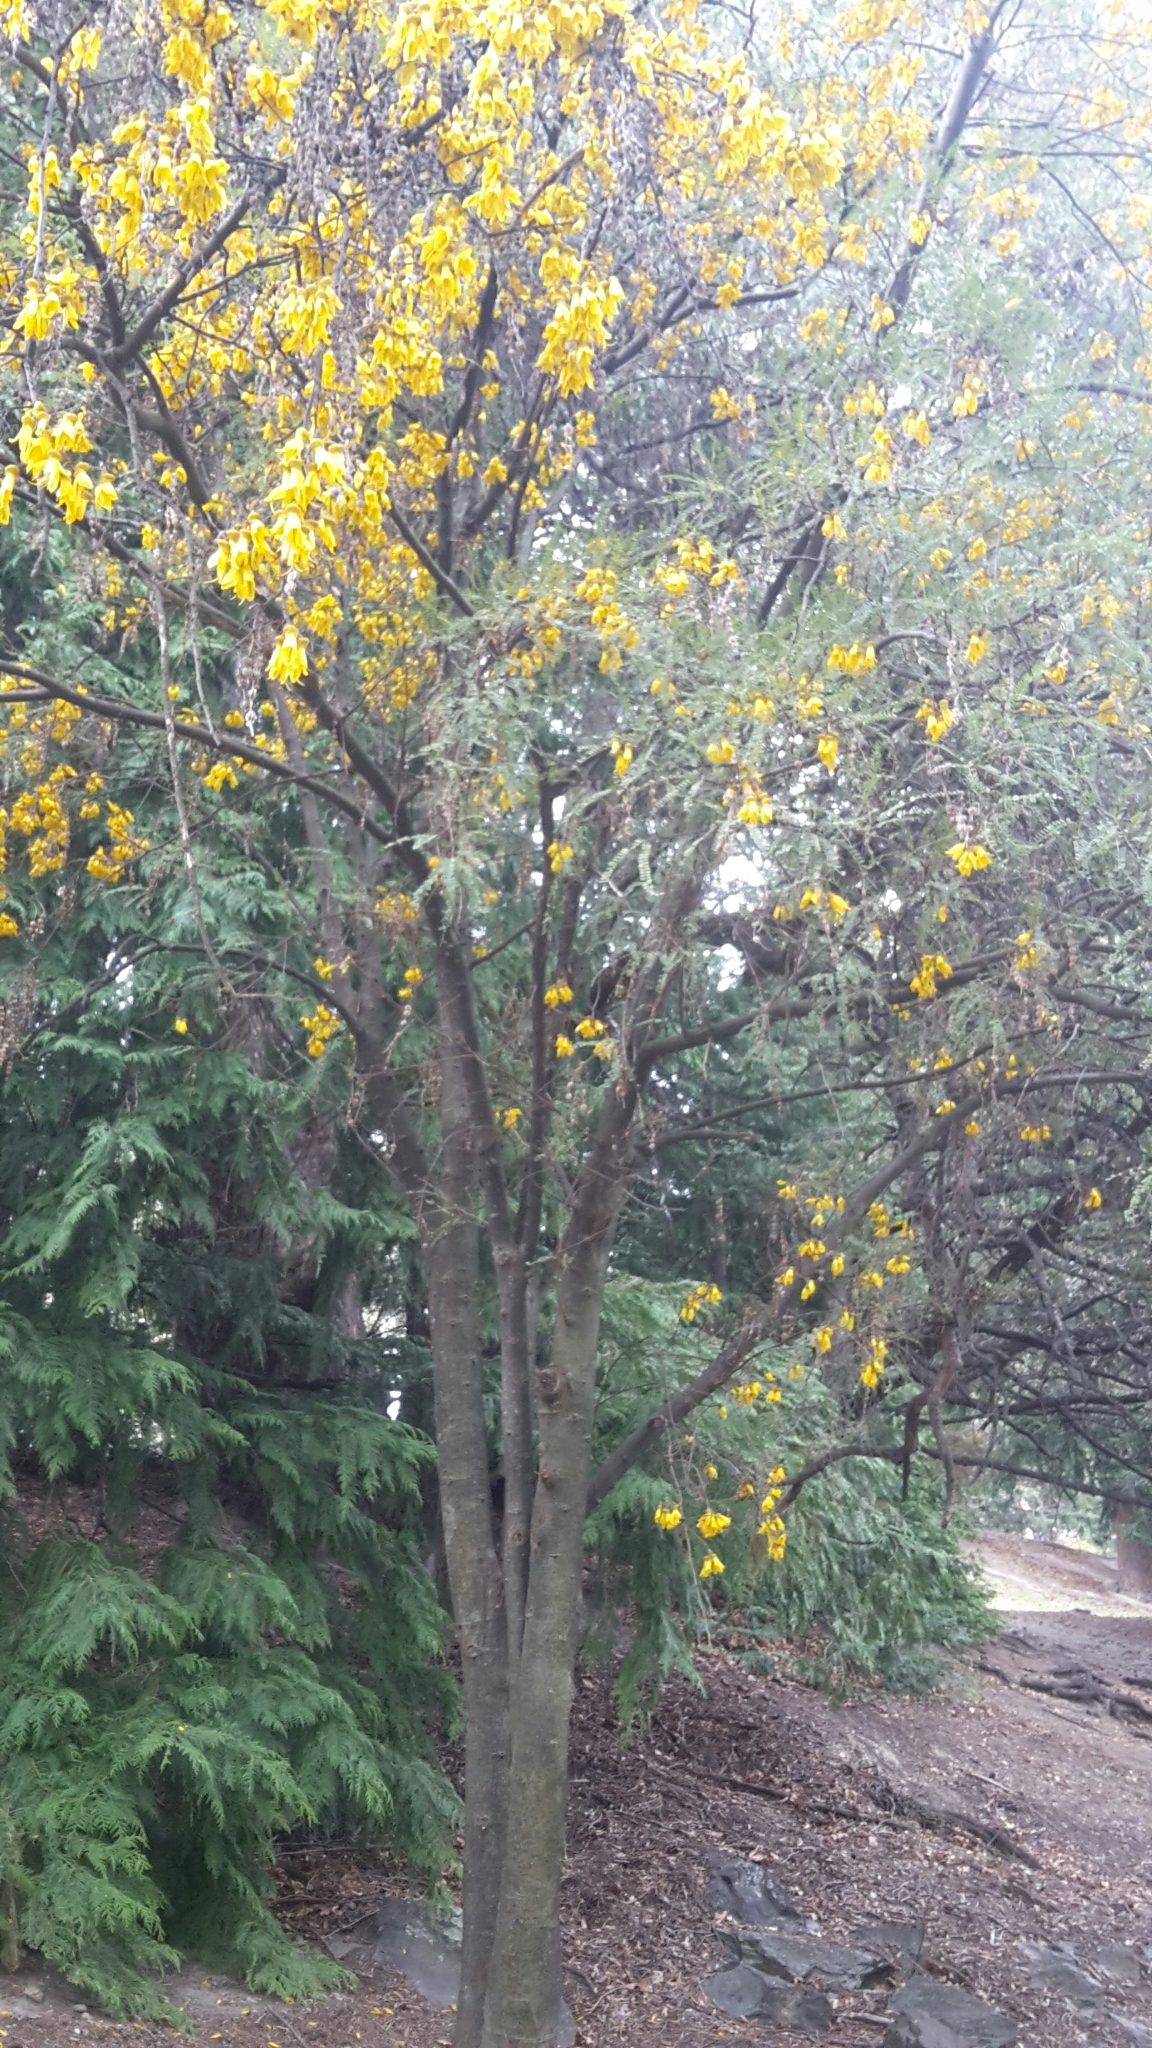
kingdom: Plantae
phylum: Tracheophyta
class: Magnoliopsida
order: Fabales
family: Fabaceae
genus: Sophora
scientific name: Sophora microphylla
